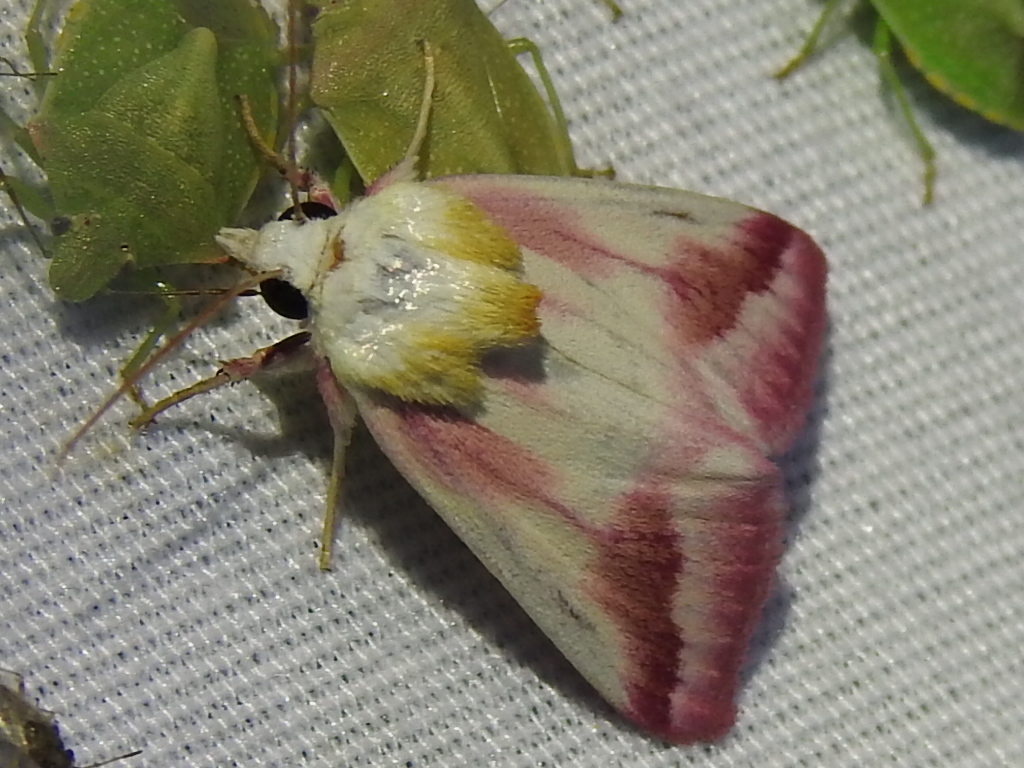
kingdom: Animalia
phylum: Arthropoda
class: Insecta
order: Lepidoptera
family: Noctuidae
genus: Schinia
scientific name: Schinia gaurae
